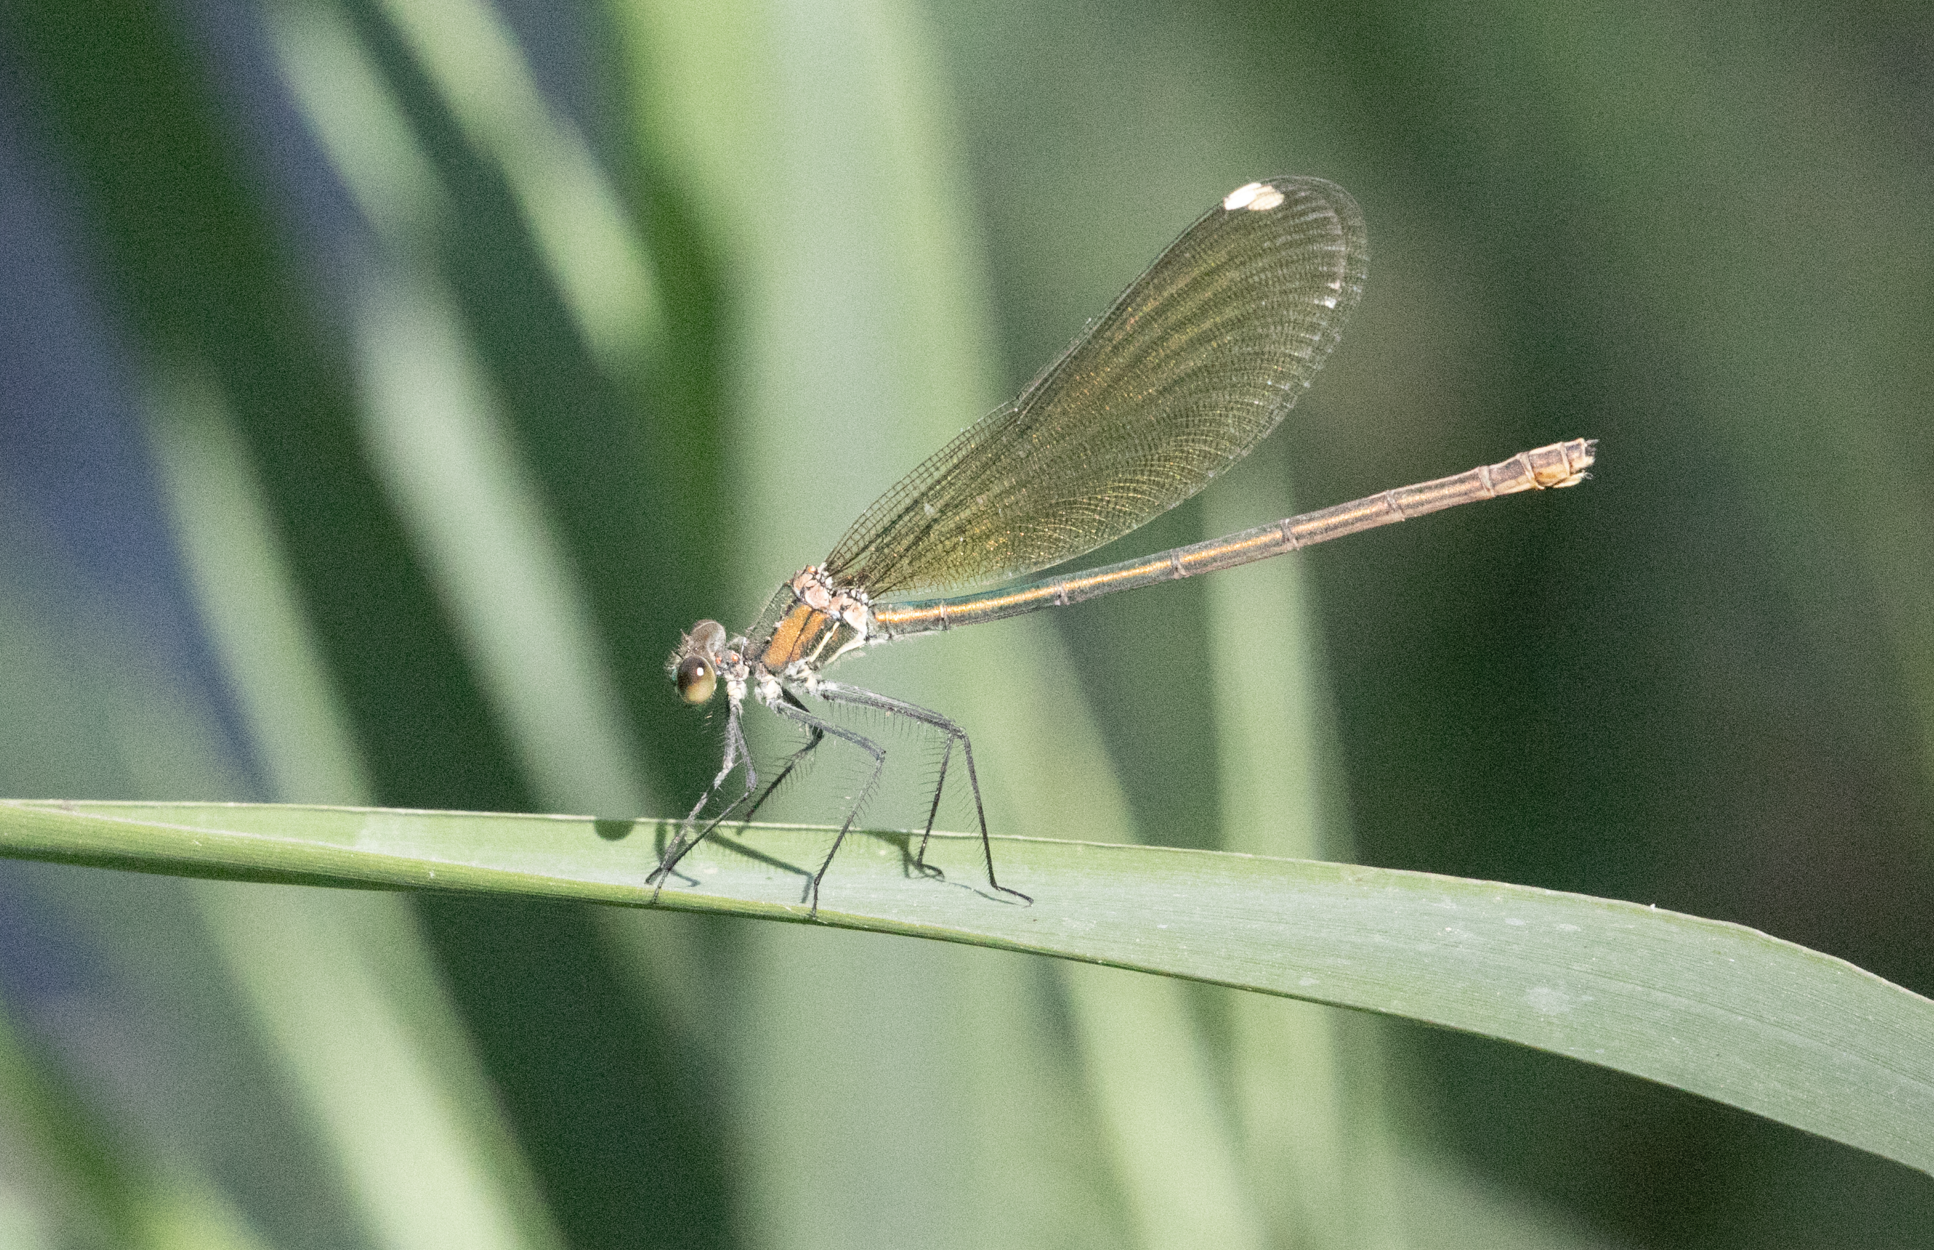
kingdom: Animalia
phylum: Arthropoda
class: Insecta
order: Odonata
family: Calopterygidae
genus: Calopteryx
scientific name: Calopteryx splendens
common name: Banded demoiselle
